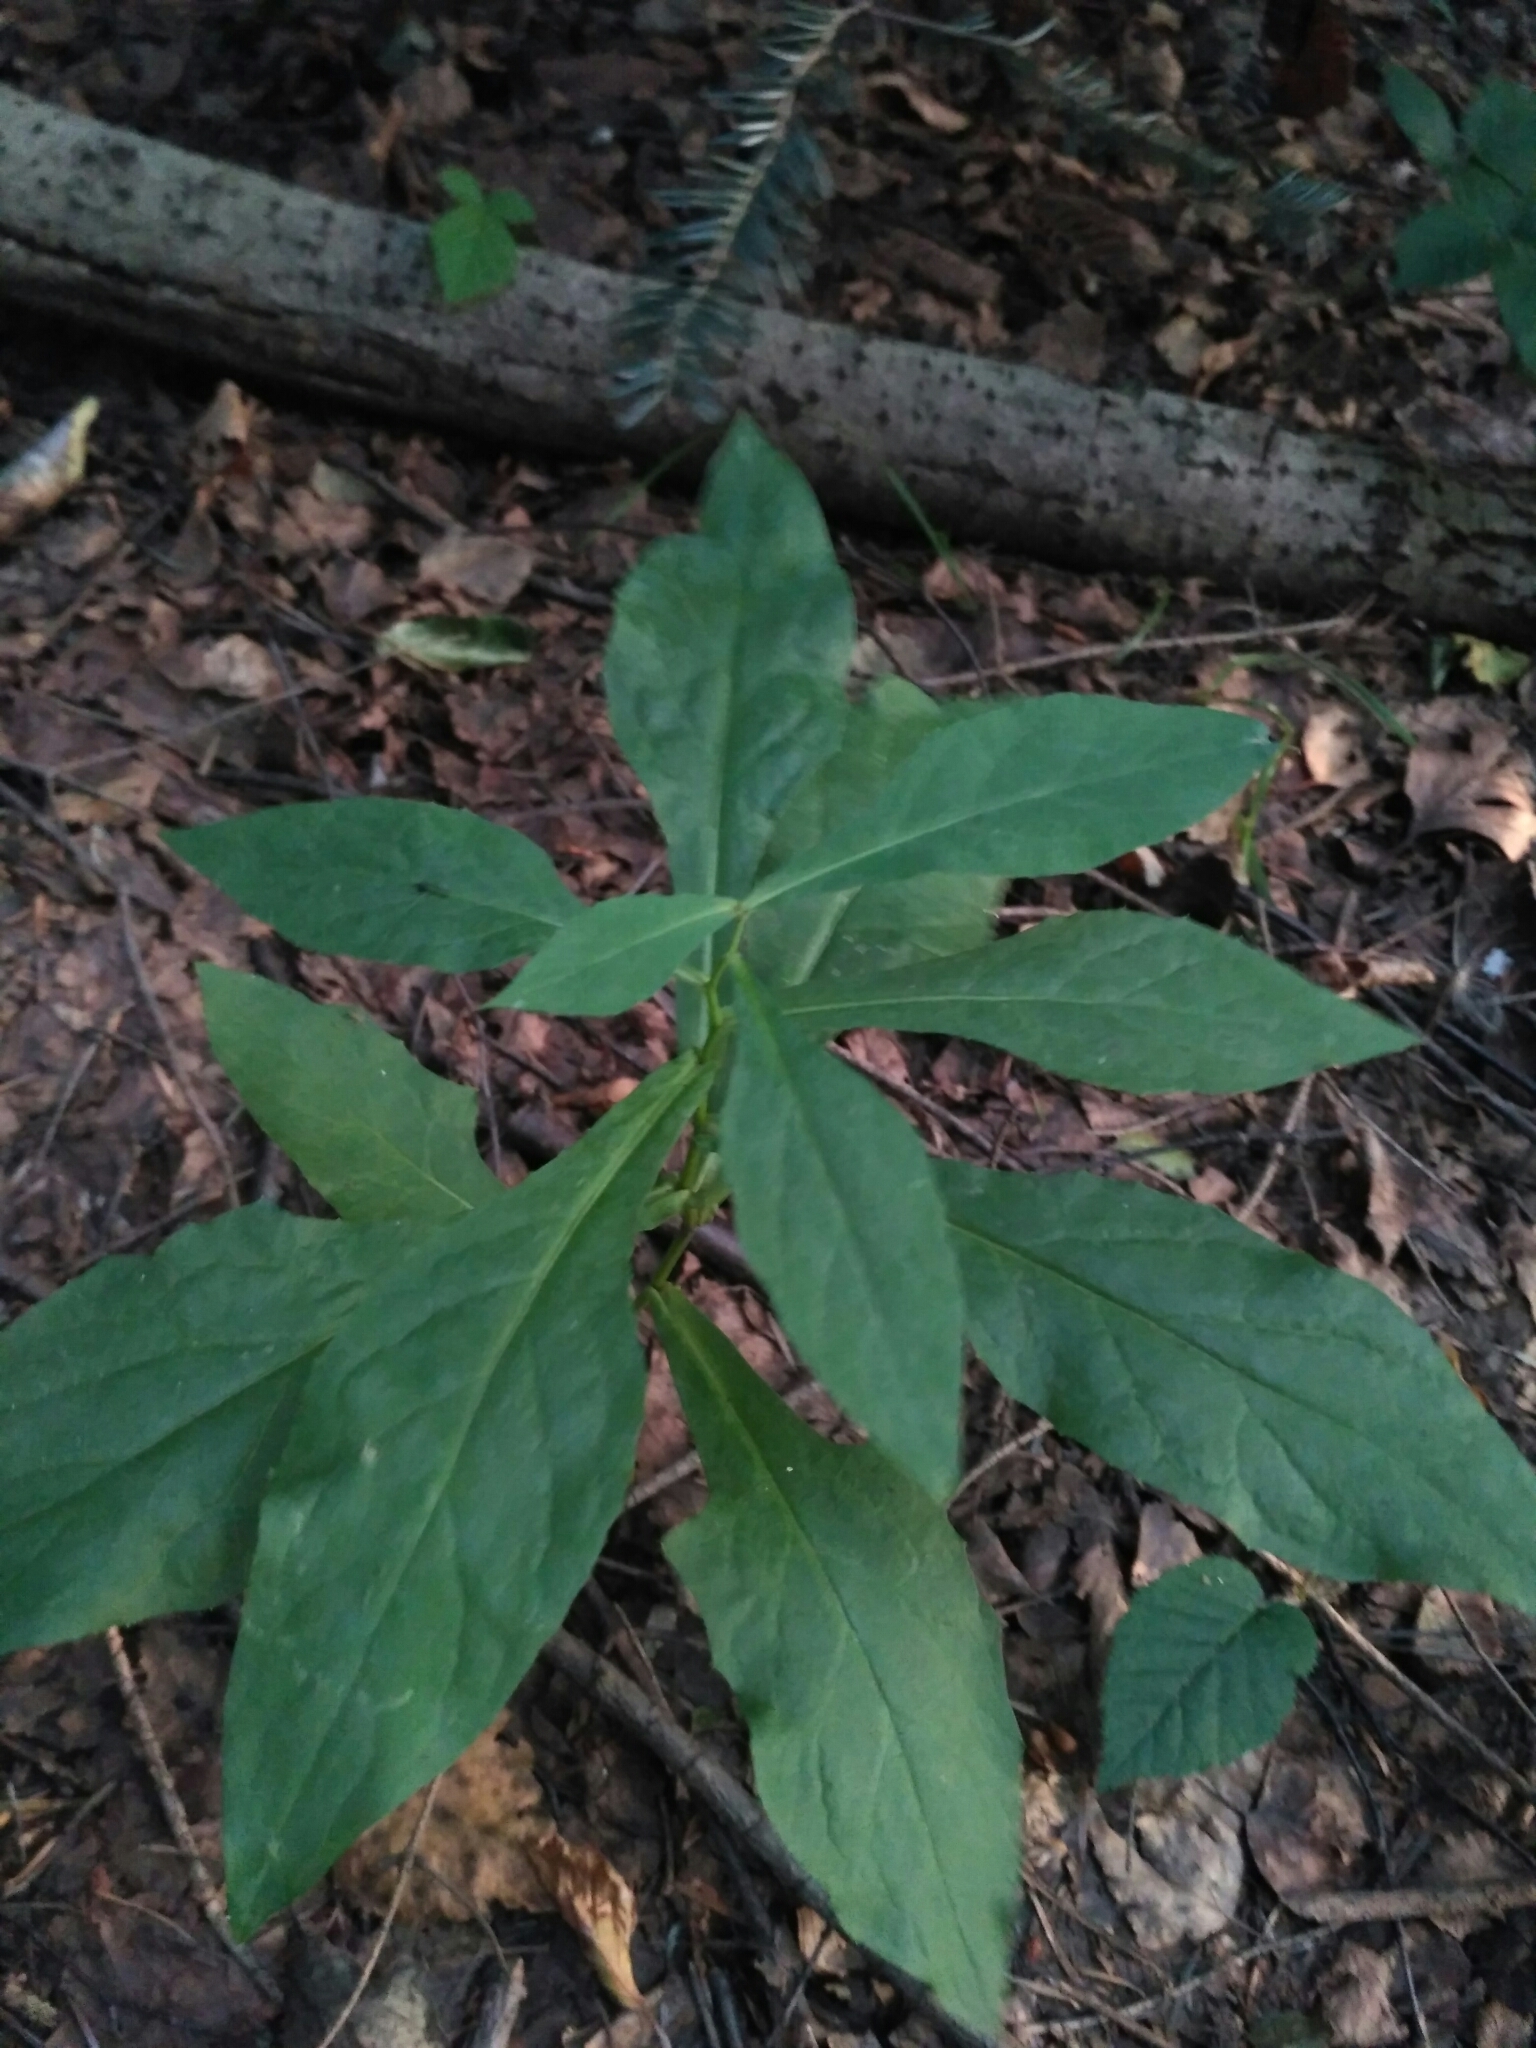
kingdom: Plantae
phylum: Tracheophyta
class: Magnoliopsida
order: Asterales
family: Asteraceae
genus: Prenanthes
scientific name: Prenanthes purpurea
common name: Purple lettuce
